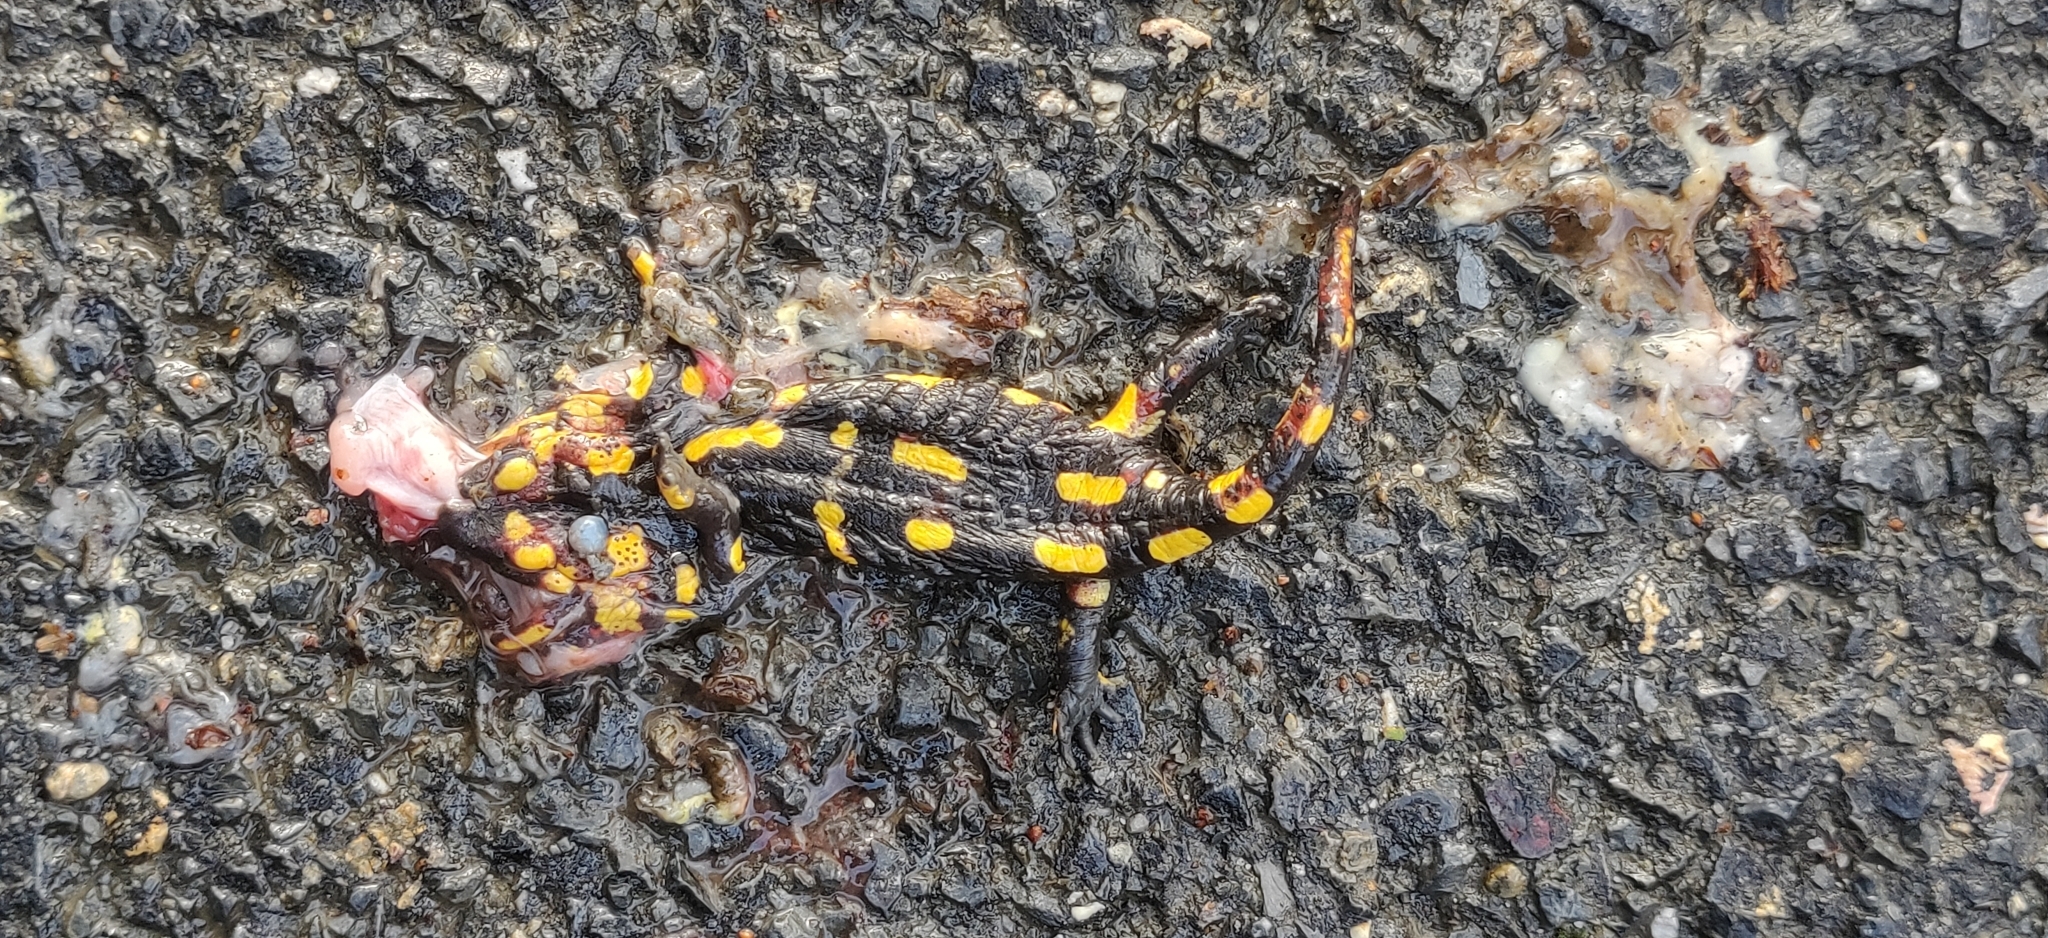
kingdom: Animalia
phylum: Chordata
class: Amphibia
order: Caudata
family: Salamandridae
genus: Salamandra
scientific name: Salamandra salamandra
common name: Fire salamander
